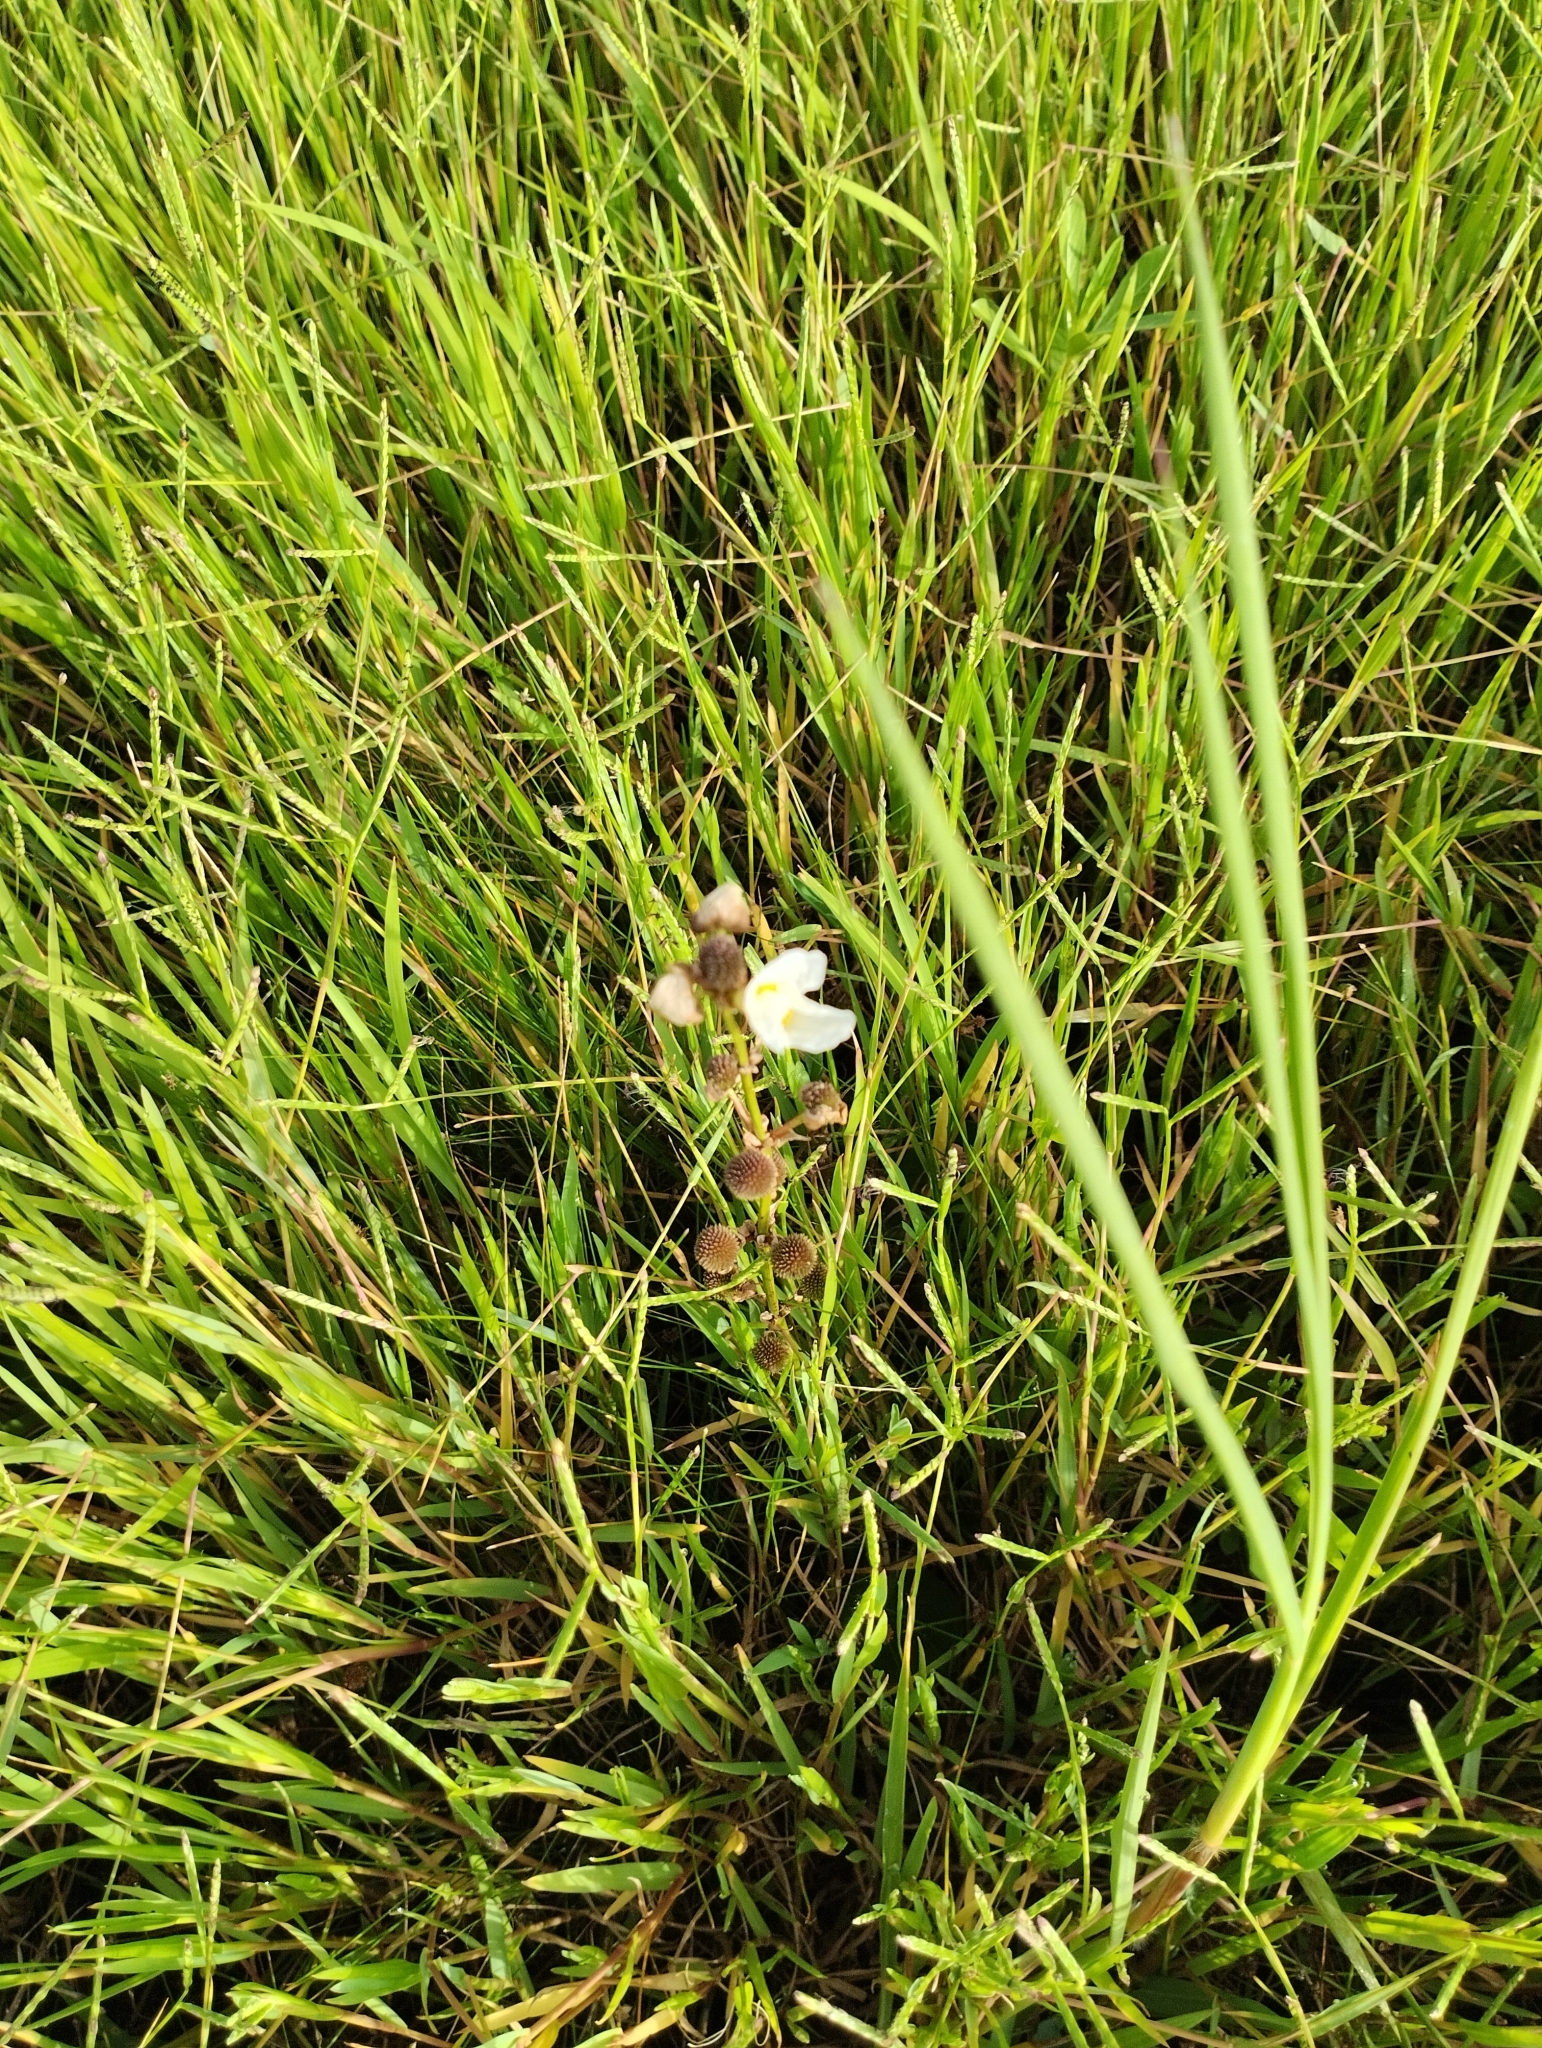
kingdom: Plantae
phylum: Tracheophyta
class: Liliopsida
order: Alismatales
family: Alismataceae
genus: Aquarius
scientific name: Aquarius longiscapus
